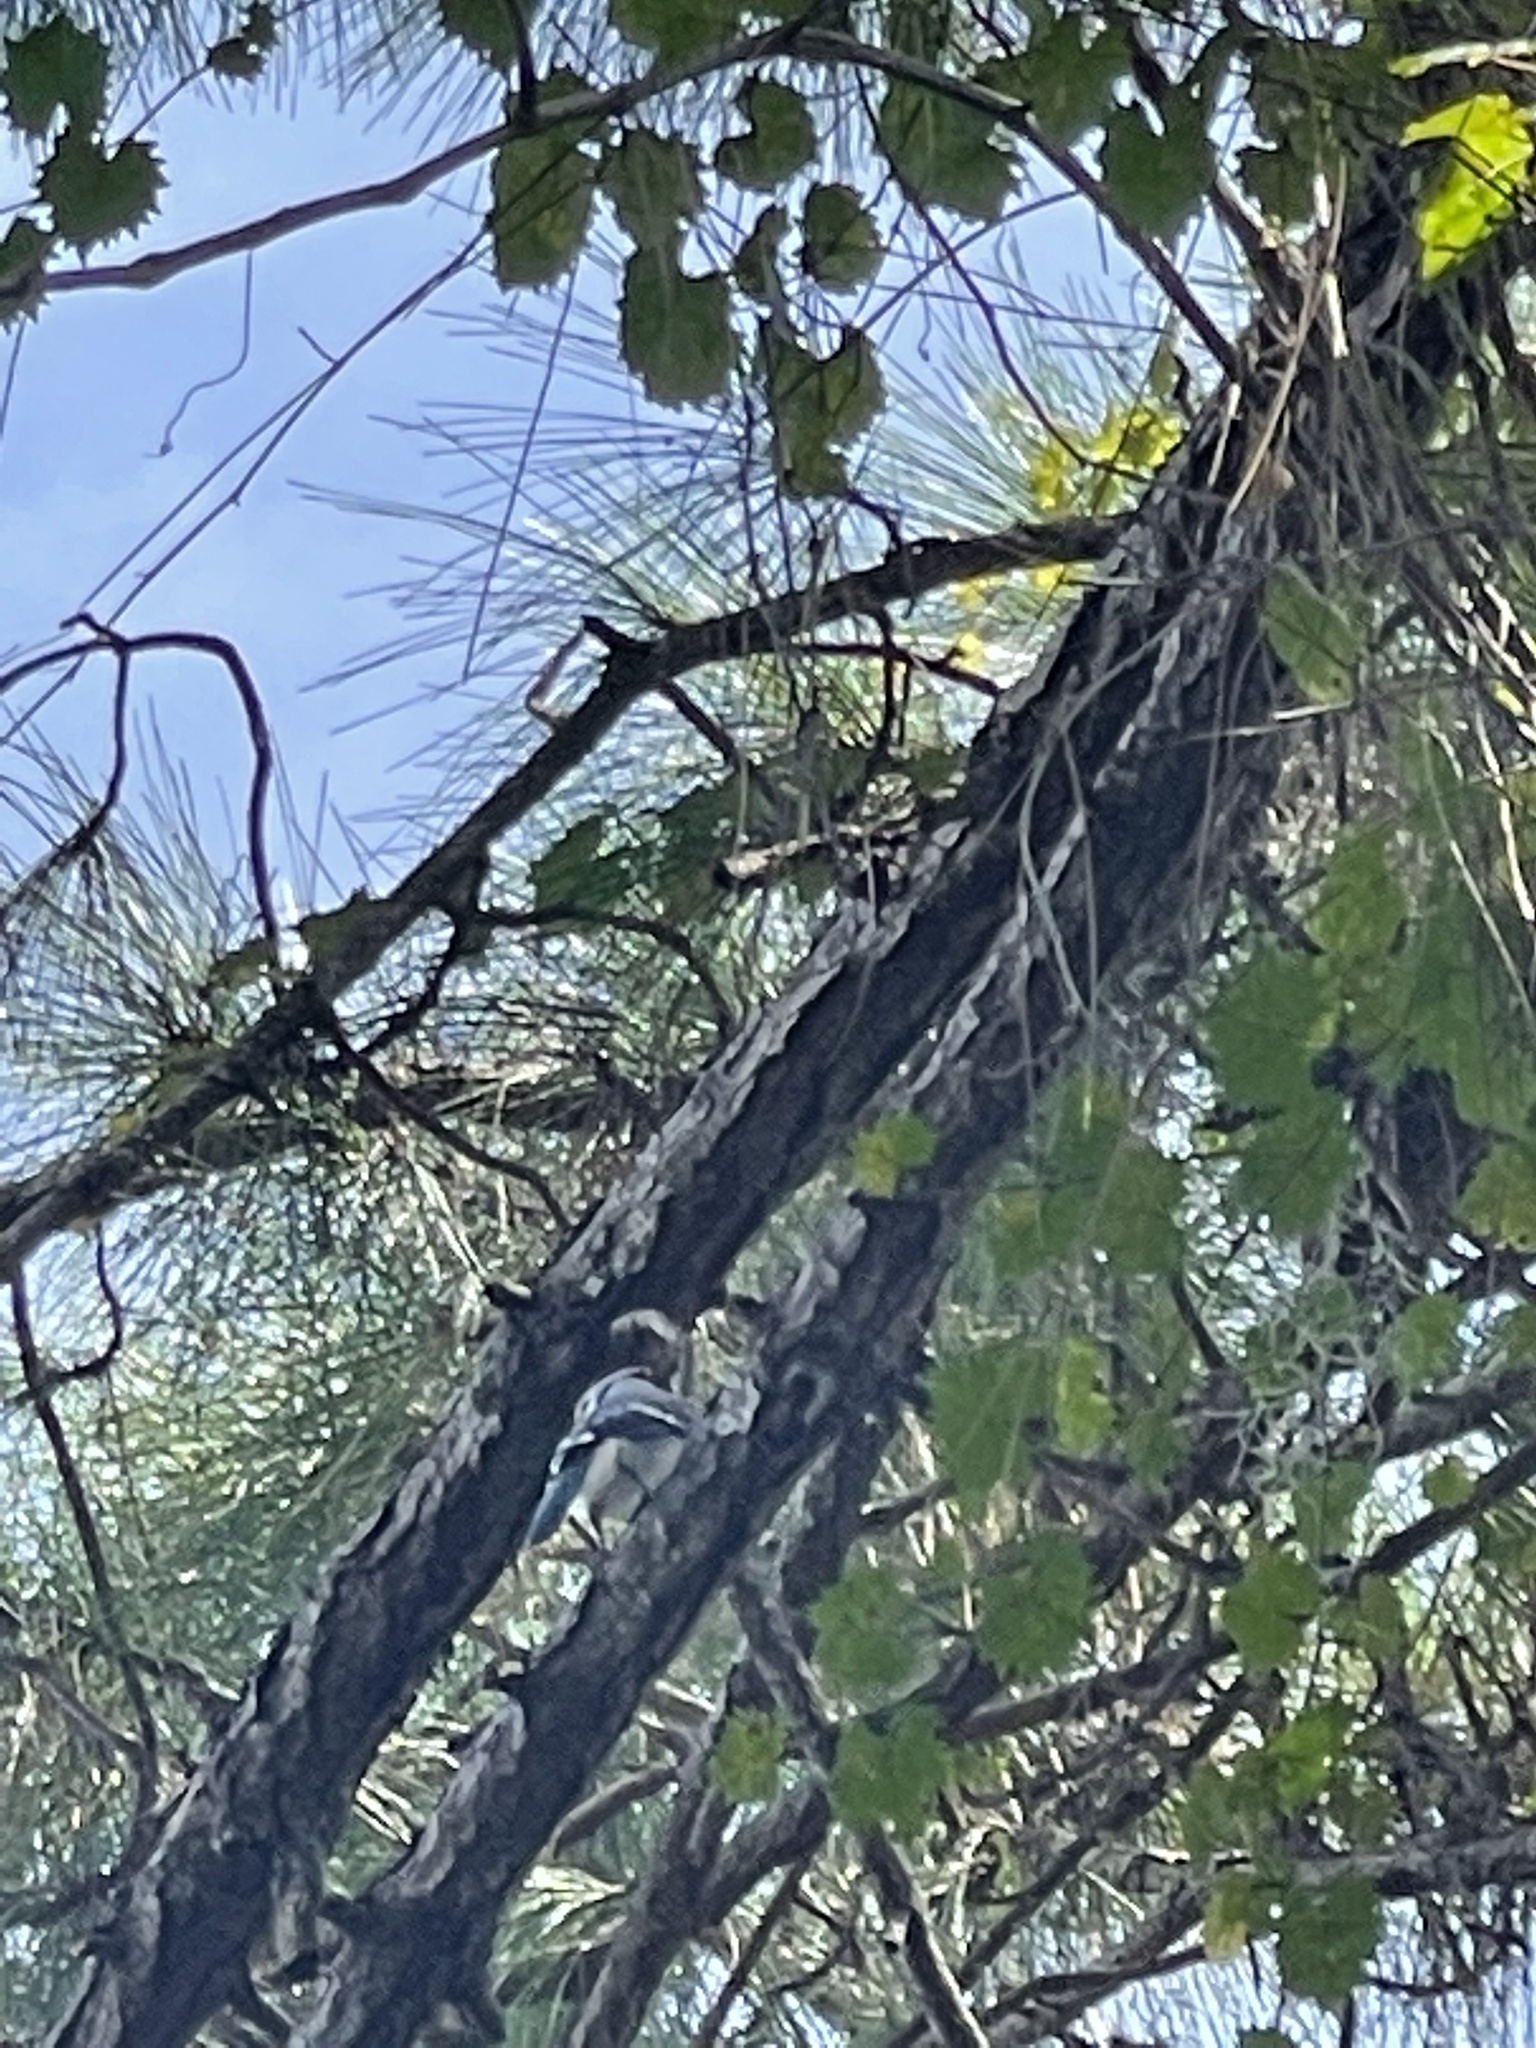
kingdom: Animalia
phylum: Chordata
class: Aves
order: Passeriformes
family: Corvidae
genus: Cyanocitta
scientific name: Cyanocitta cristata
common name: Blue jay
